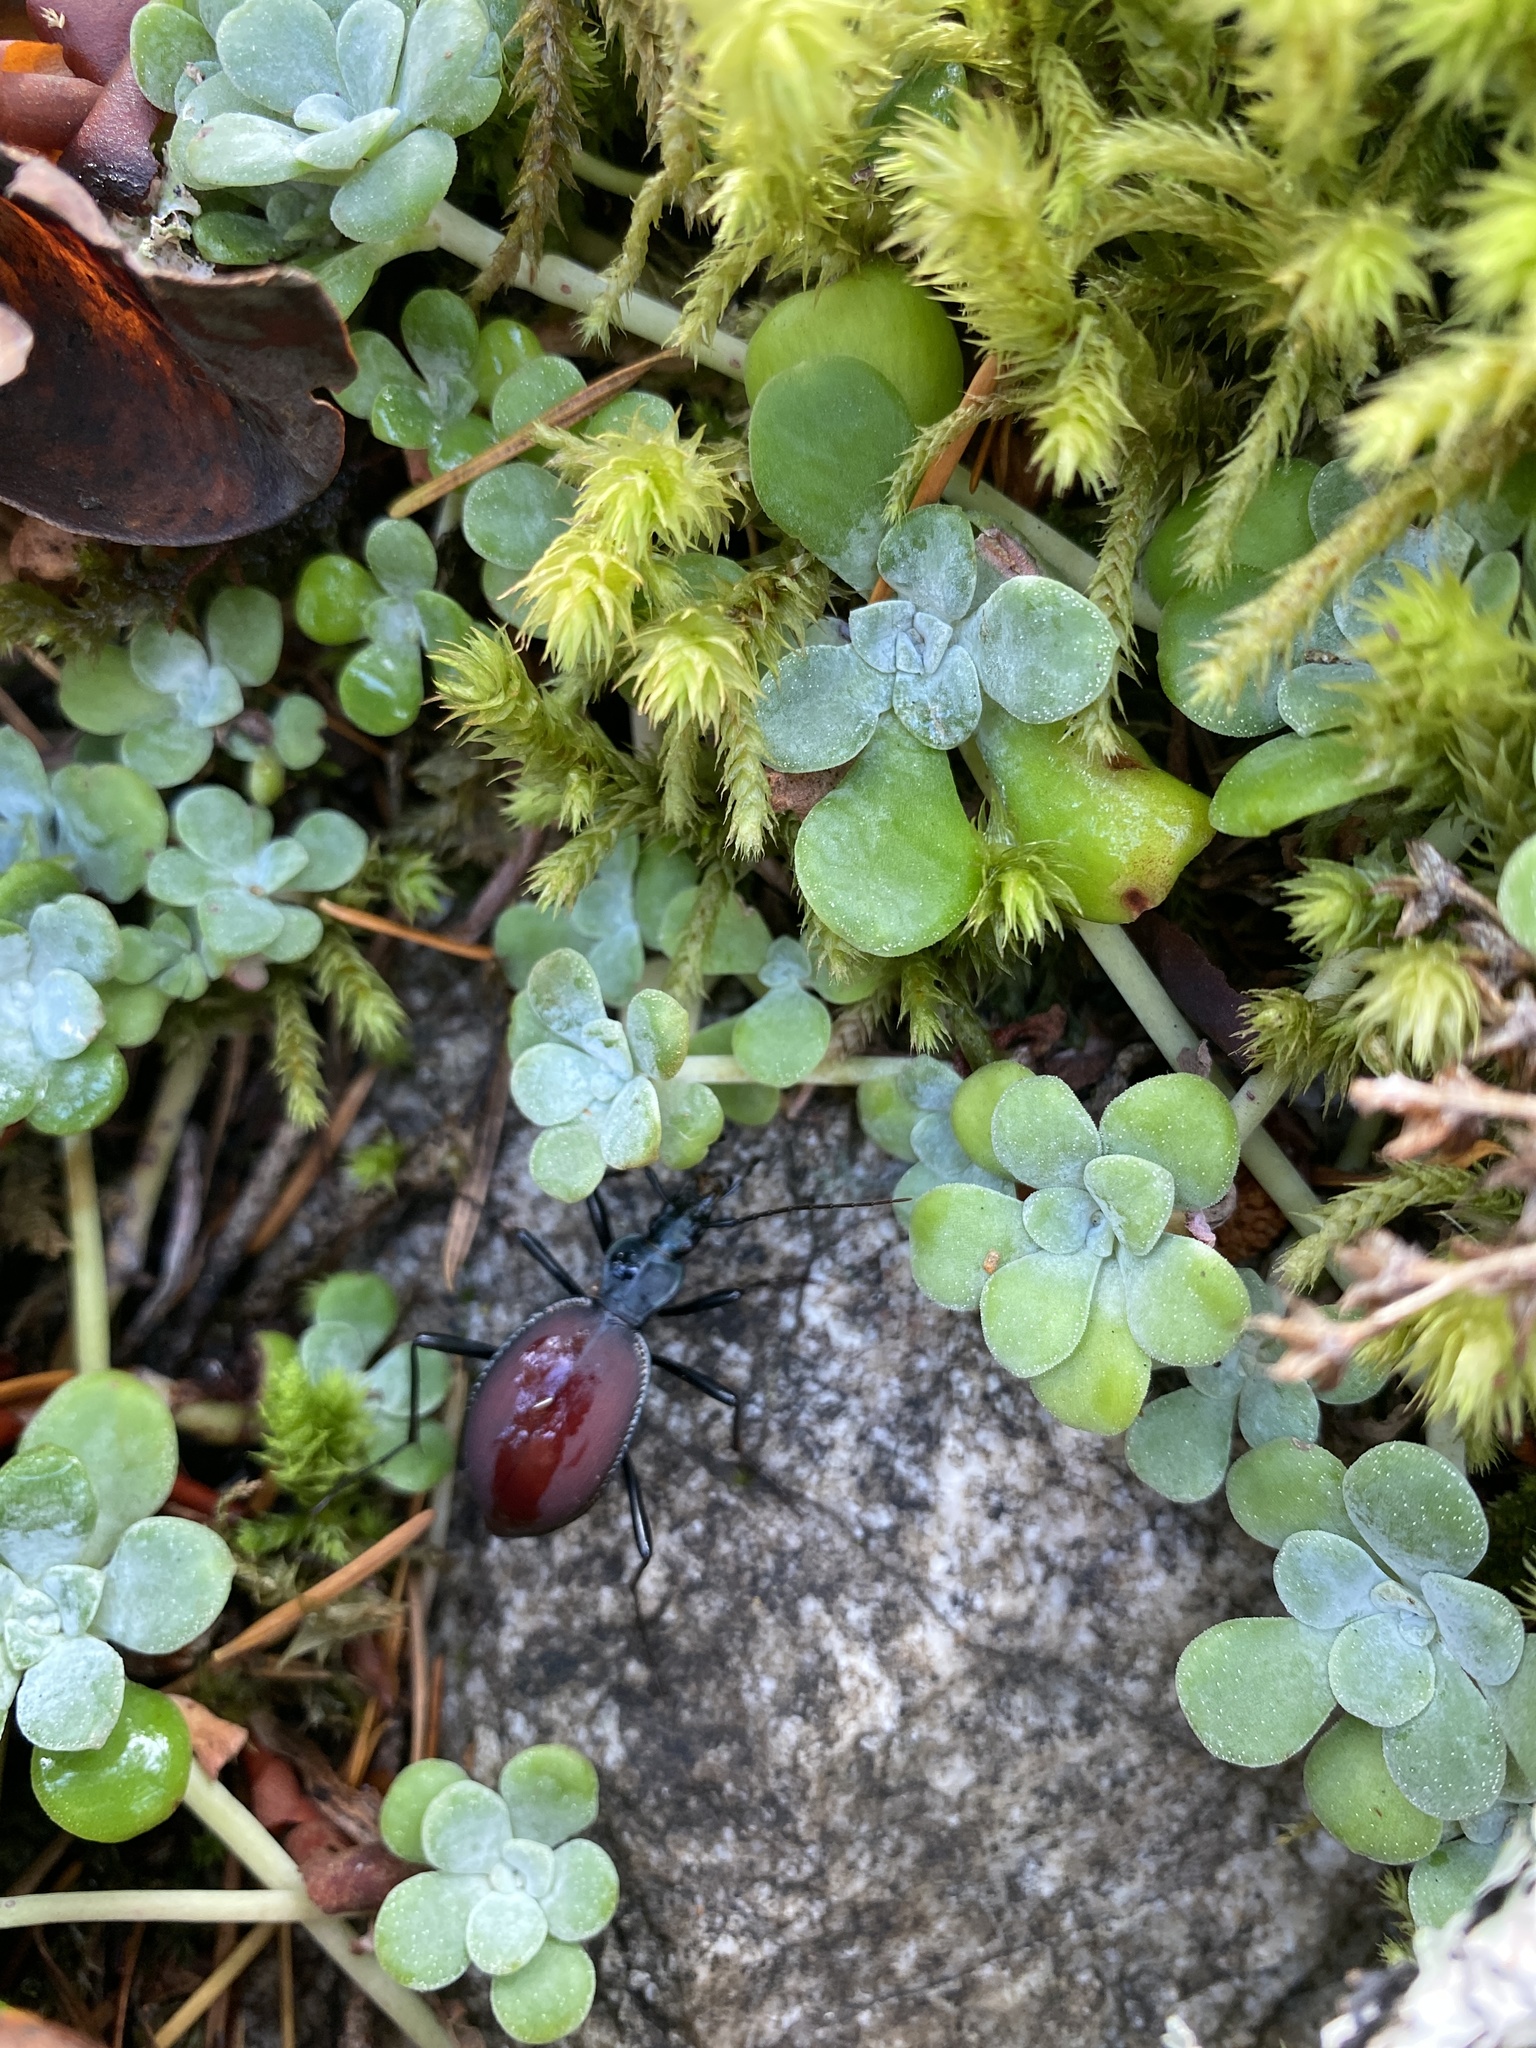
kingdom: Animalia
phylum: Arthropoda
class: Insecta
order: Coleoptera
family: Carabidae
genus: Scaphinotus
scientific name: Scaphinotus angusticollis
